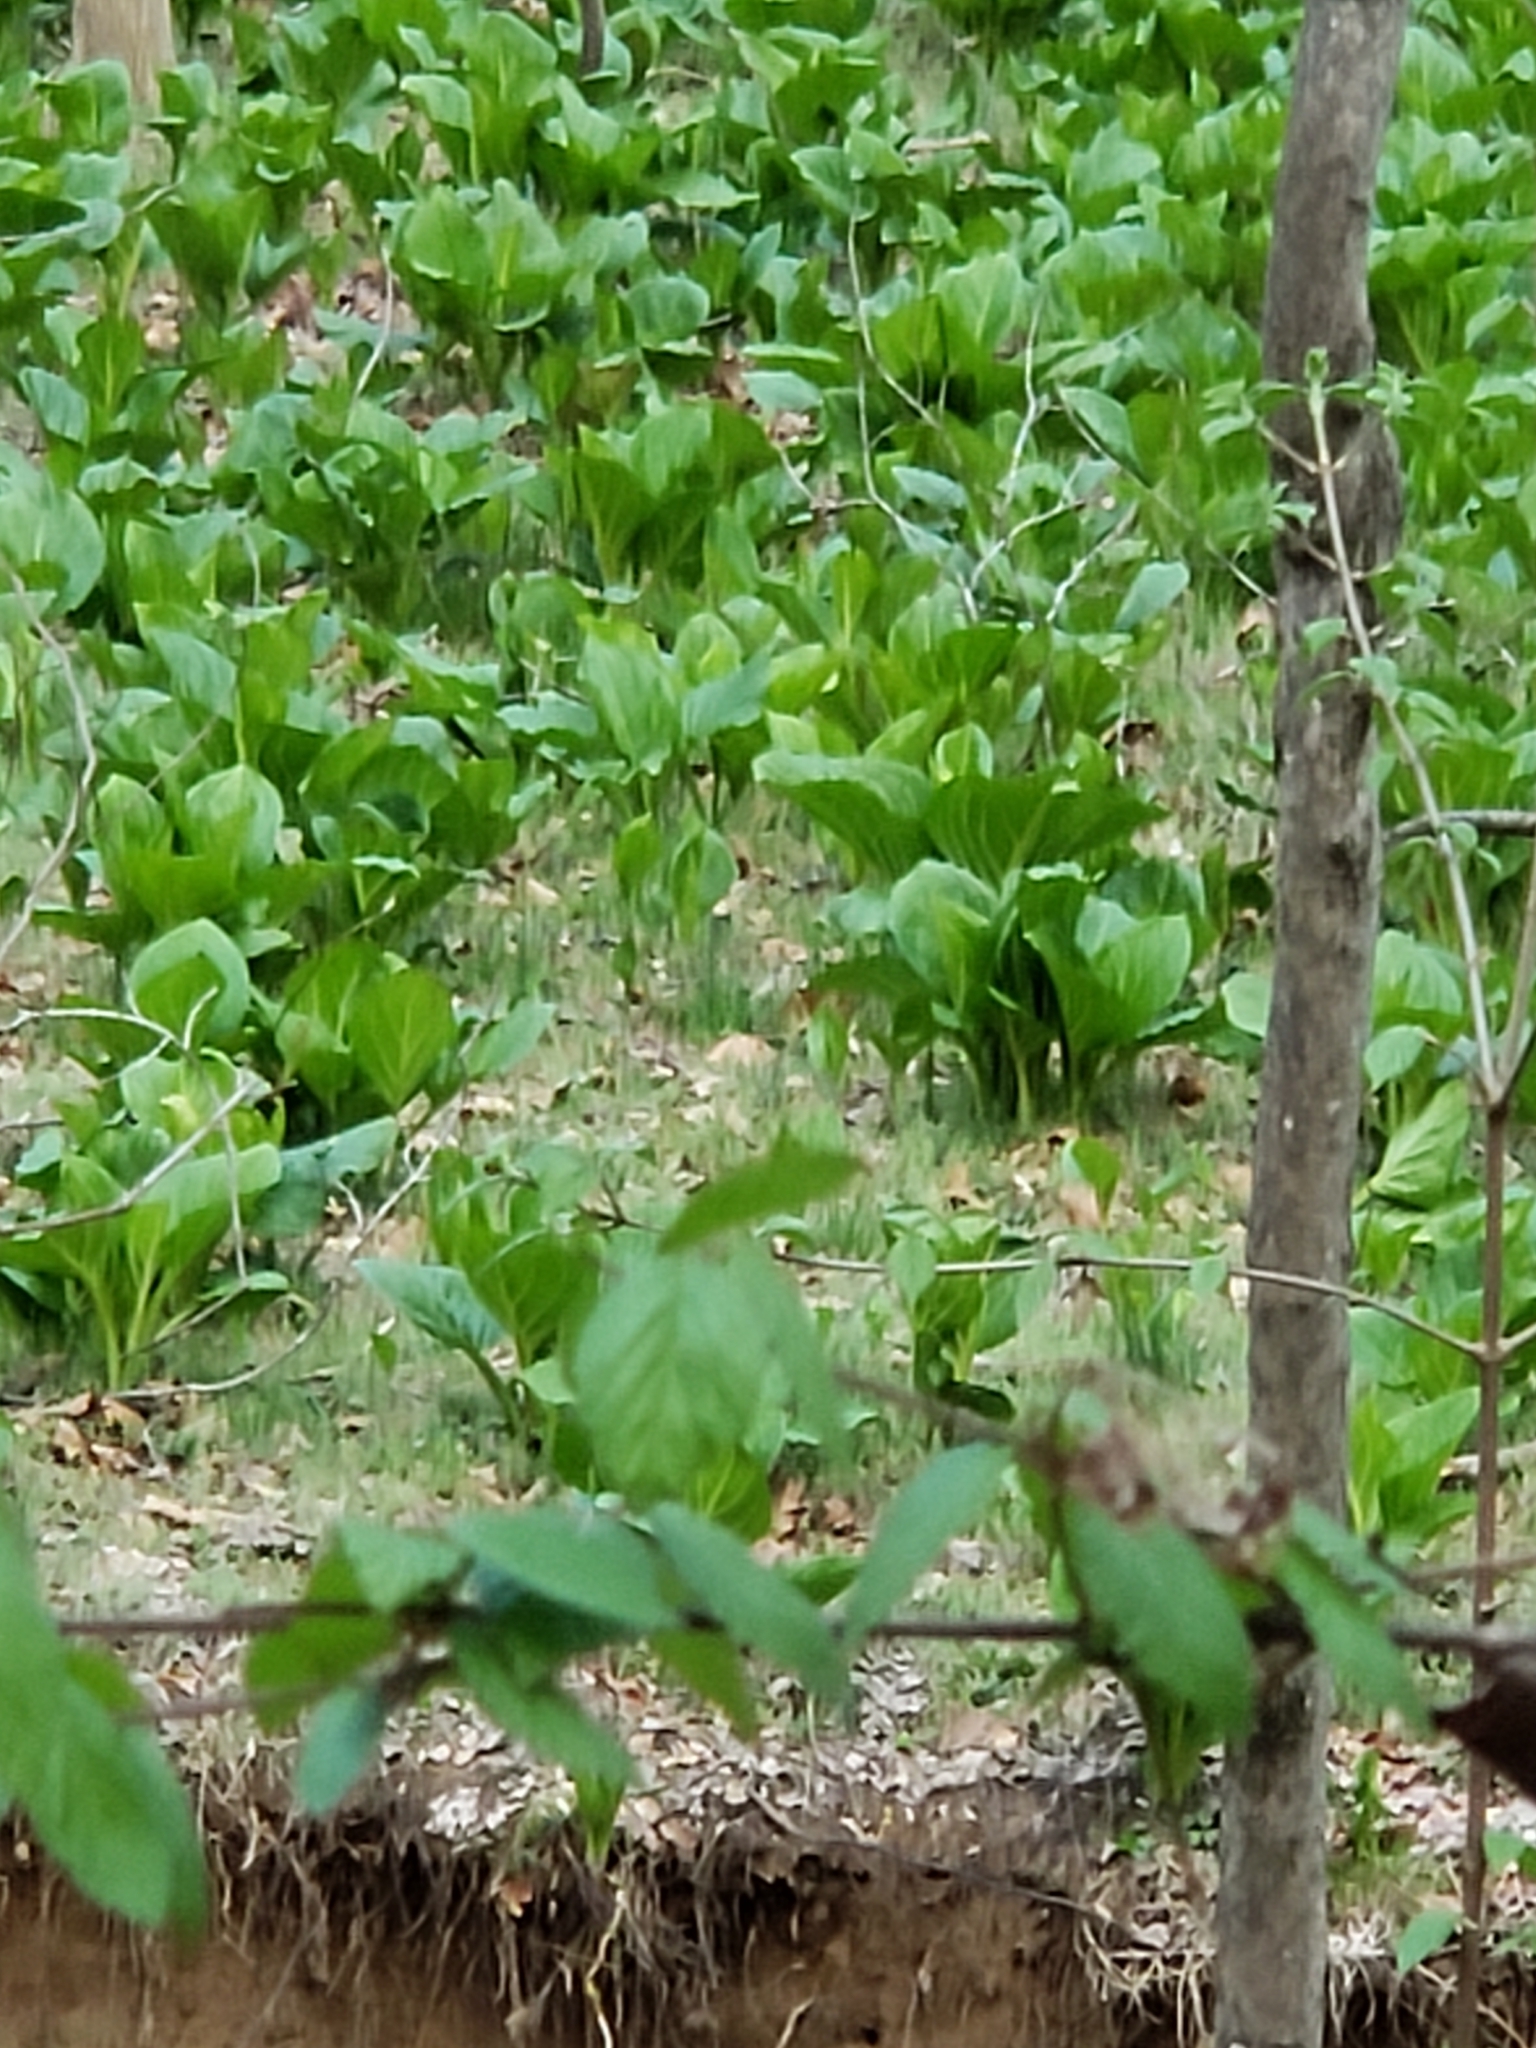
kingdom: Plantae
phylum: Tracheophyta
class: Liliopsida
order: Alismatales
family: Araceae
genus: Symplocarpus
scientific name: Symplocarpus foetidus
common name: Eastern skunk cabbage
